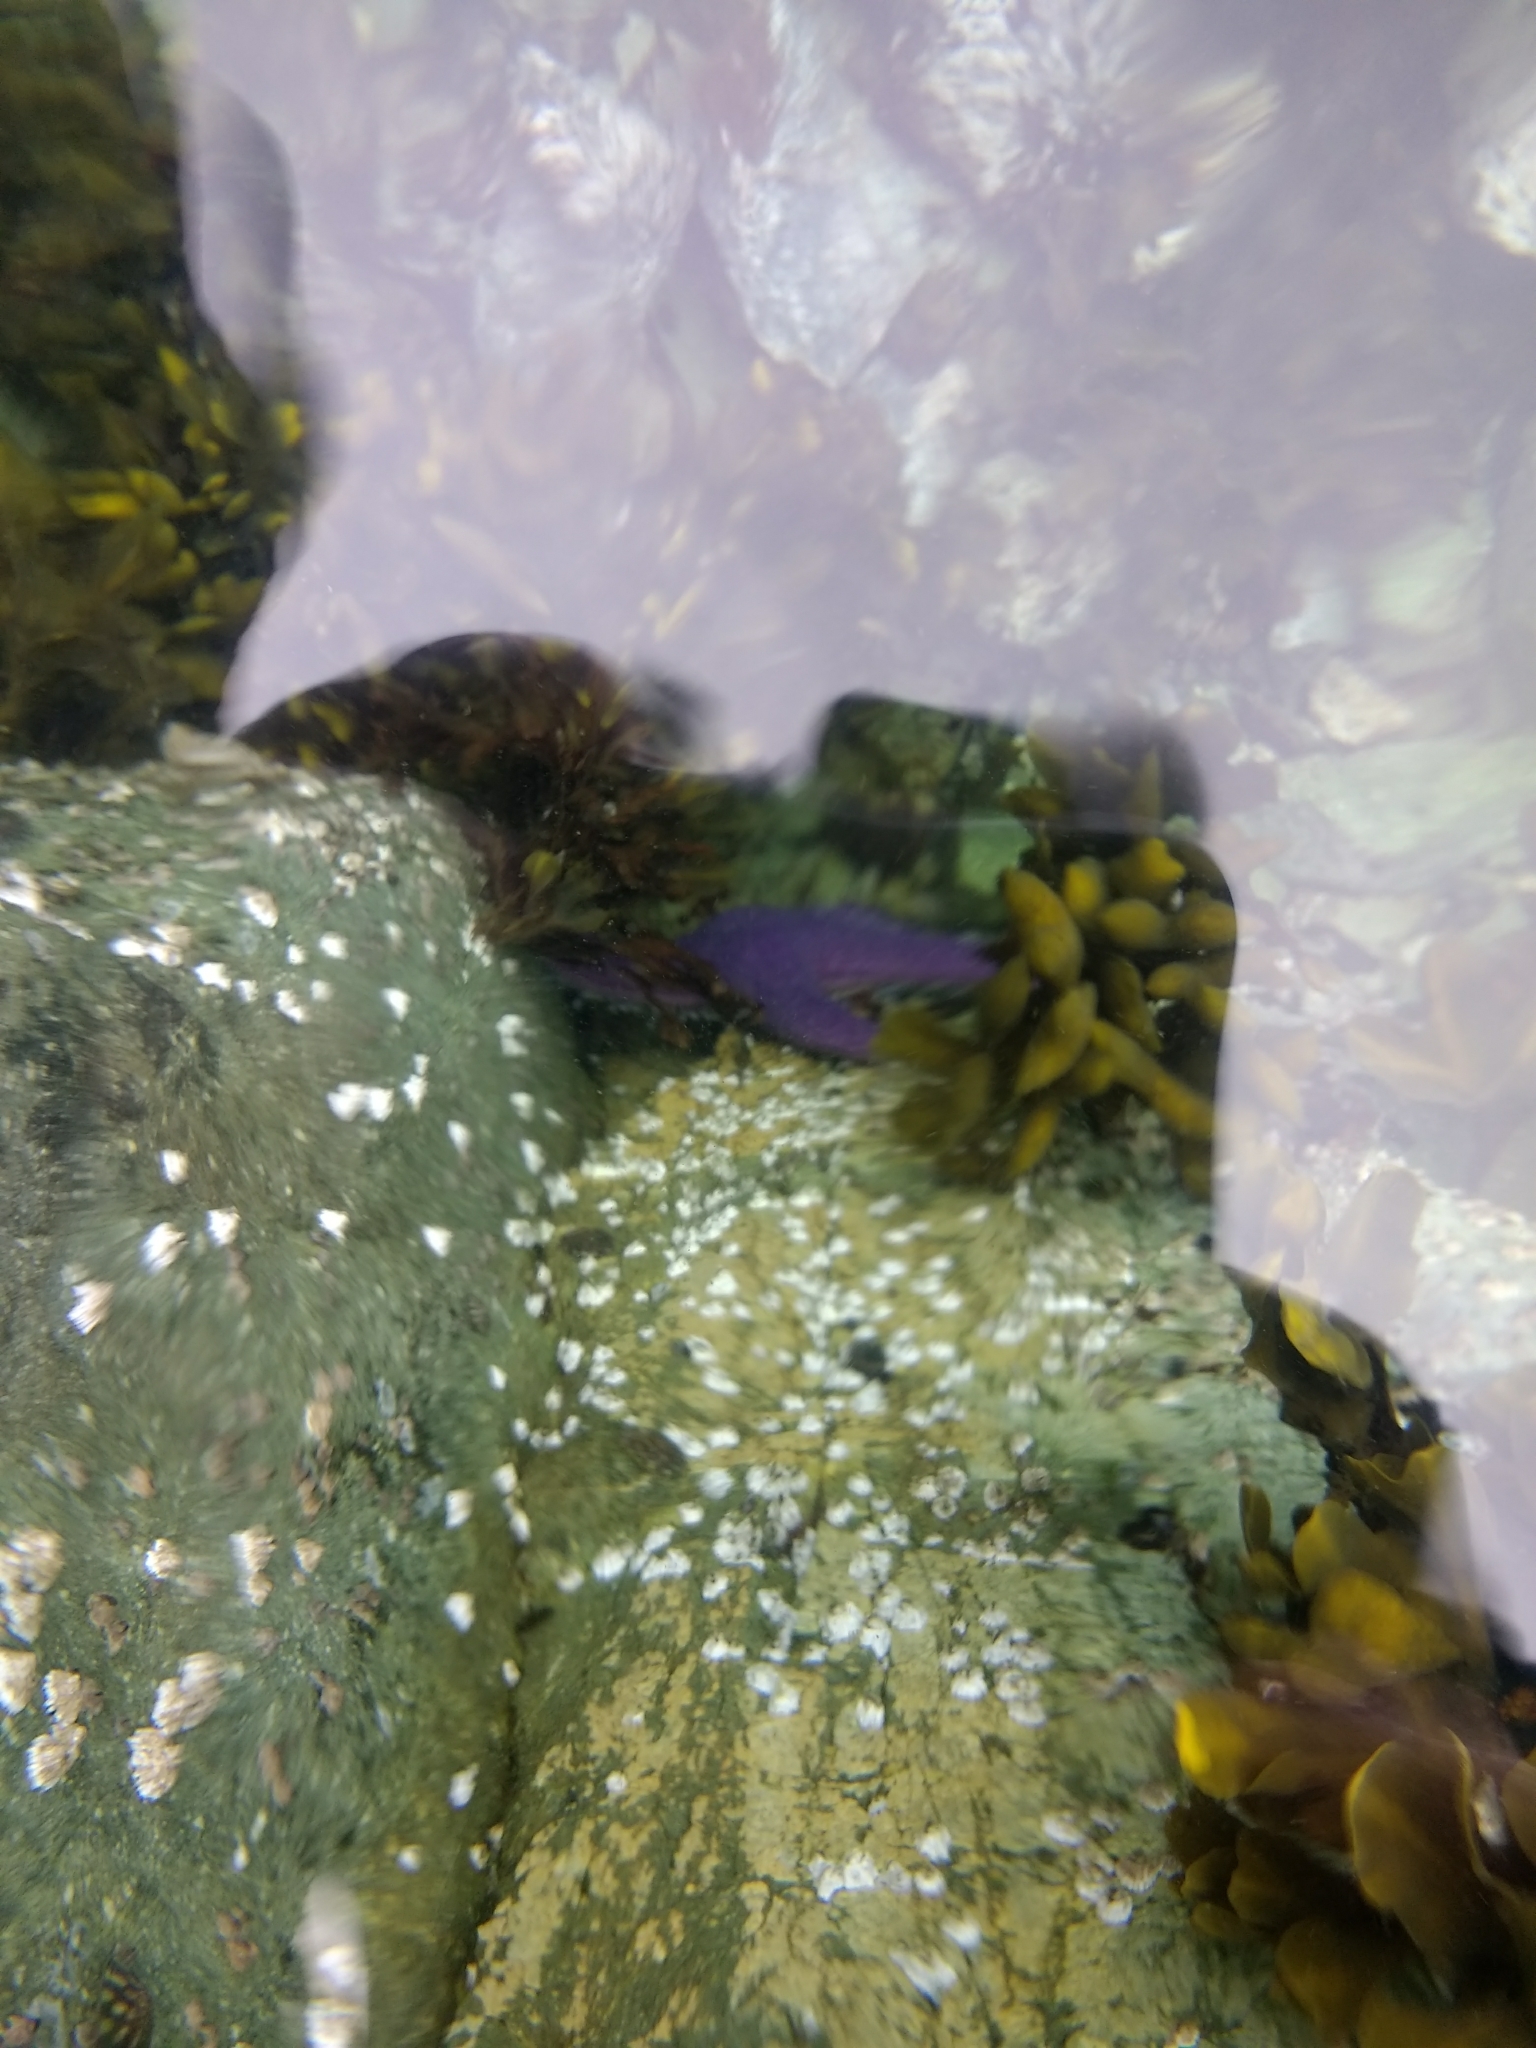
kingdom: Animalia
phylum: Echinodermata
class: Asteroidea
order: Forcipulatida
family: Asteriidae
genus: Pisaster
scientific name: Pisaster ochraceus
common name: Ochre stars
